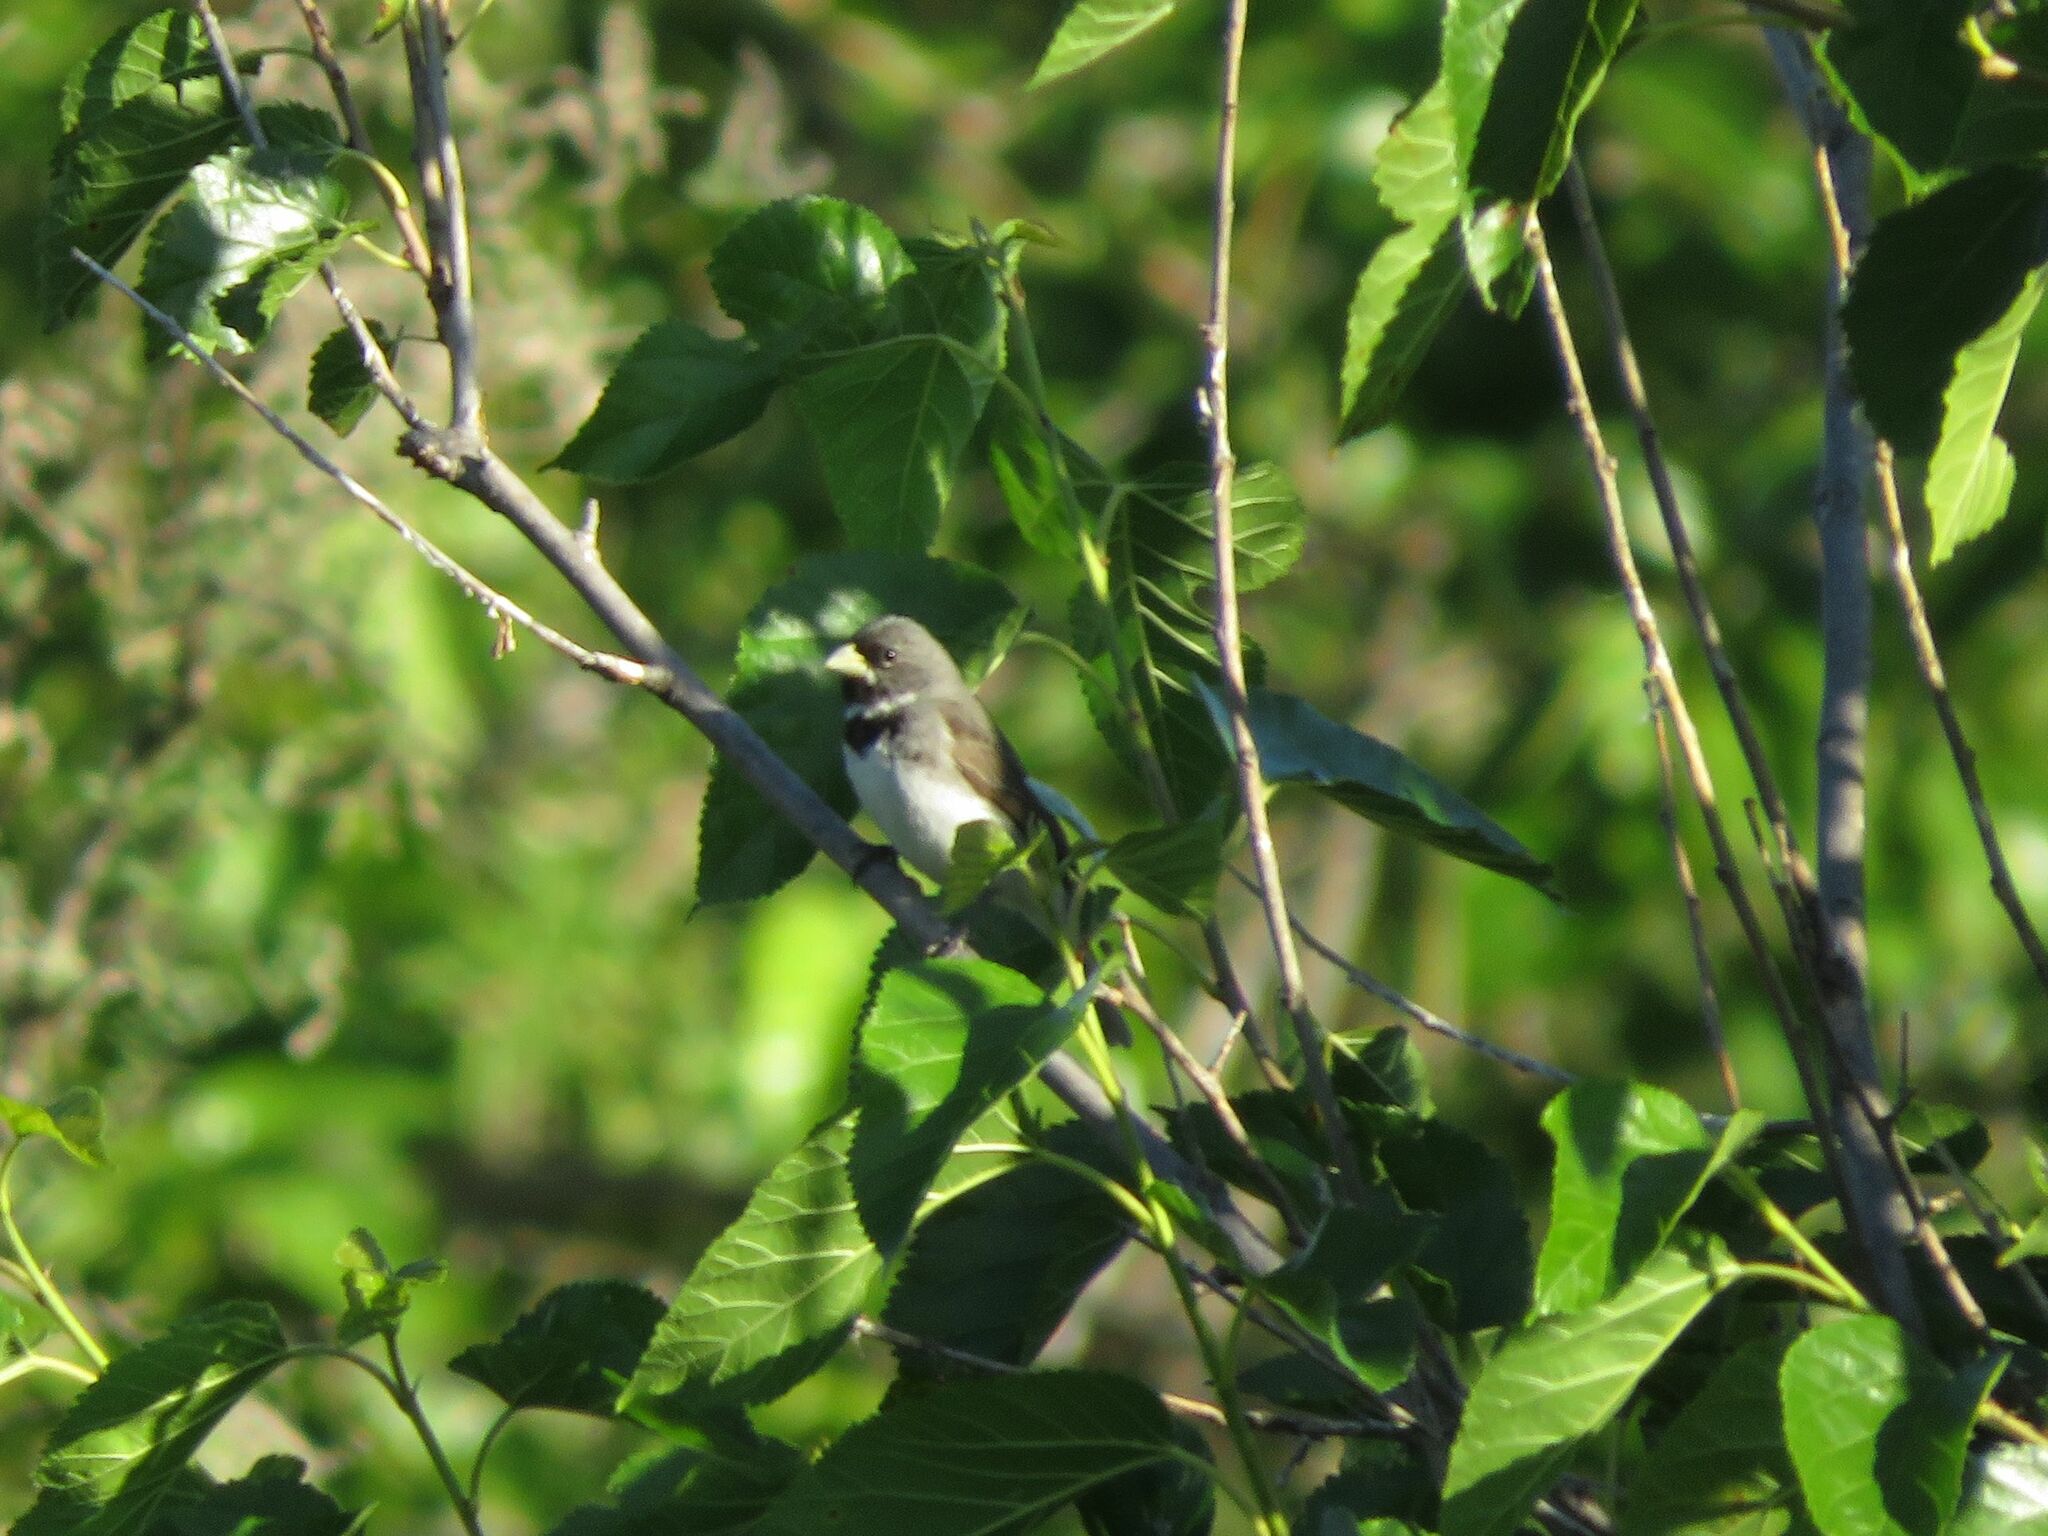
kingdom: Animalia
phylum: Chordata
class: Aves
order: Passeriformes
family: Thraupidae
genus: Sporophila
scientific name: Sporophila caerulescens
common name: Double-collared seedeater
